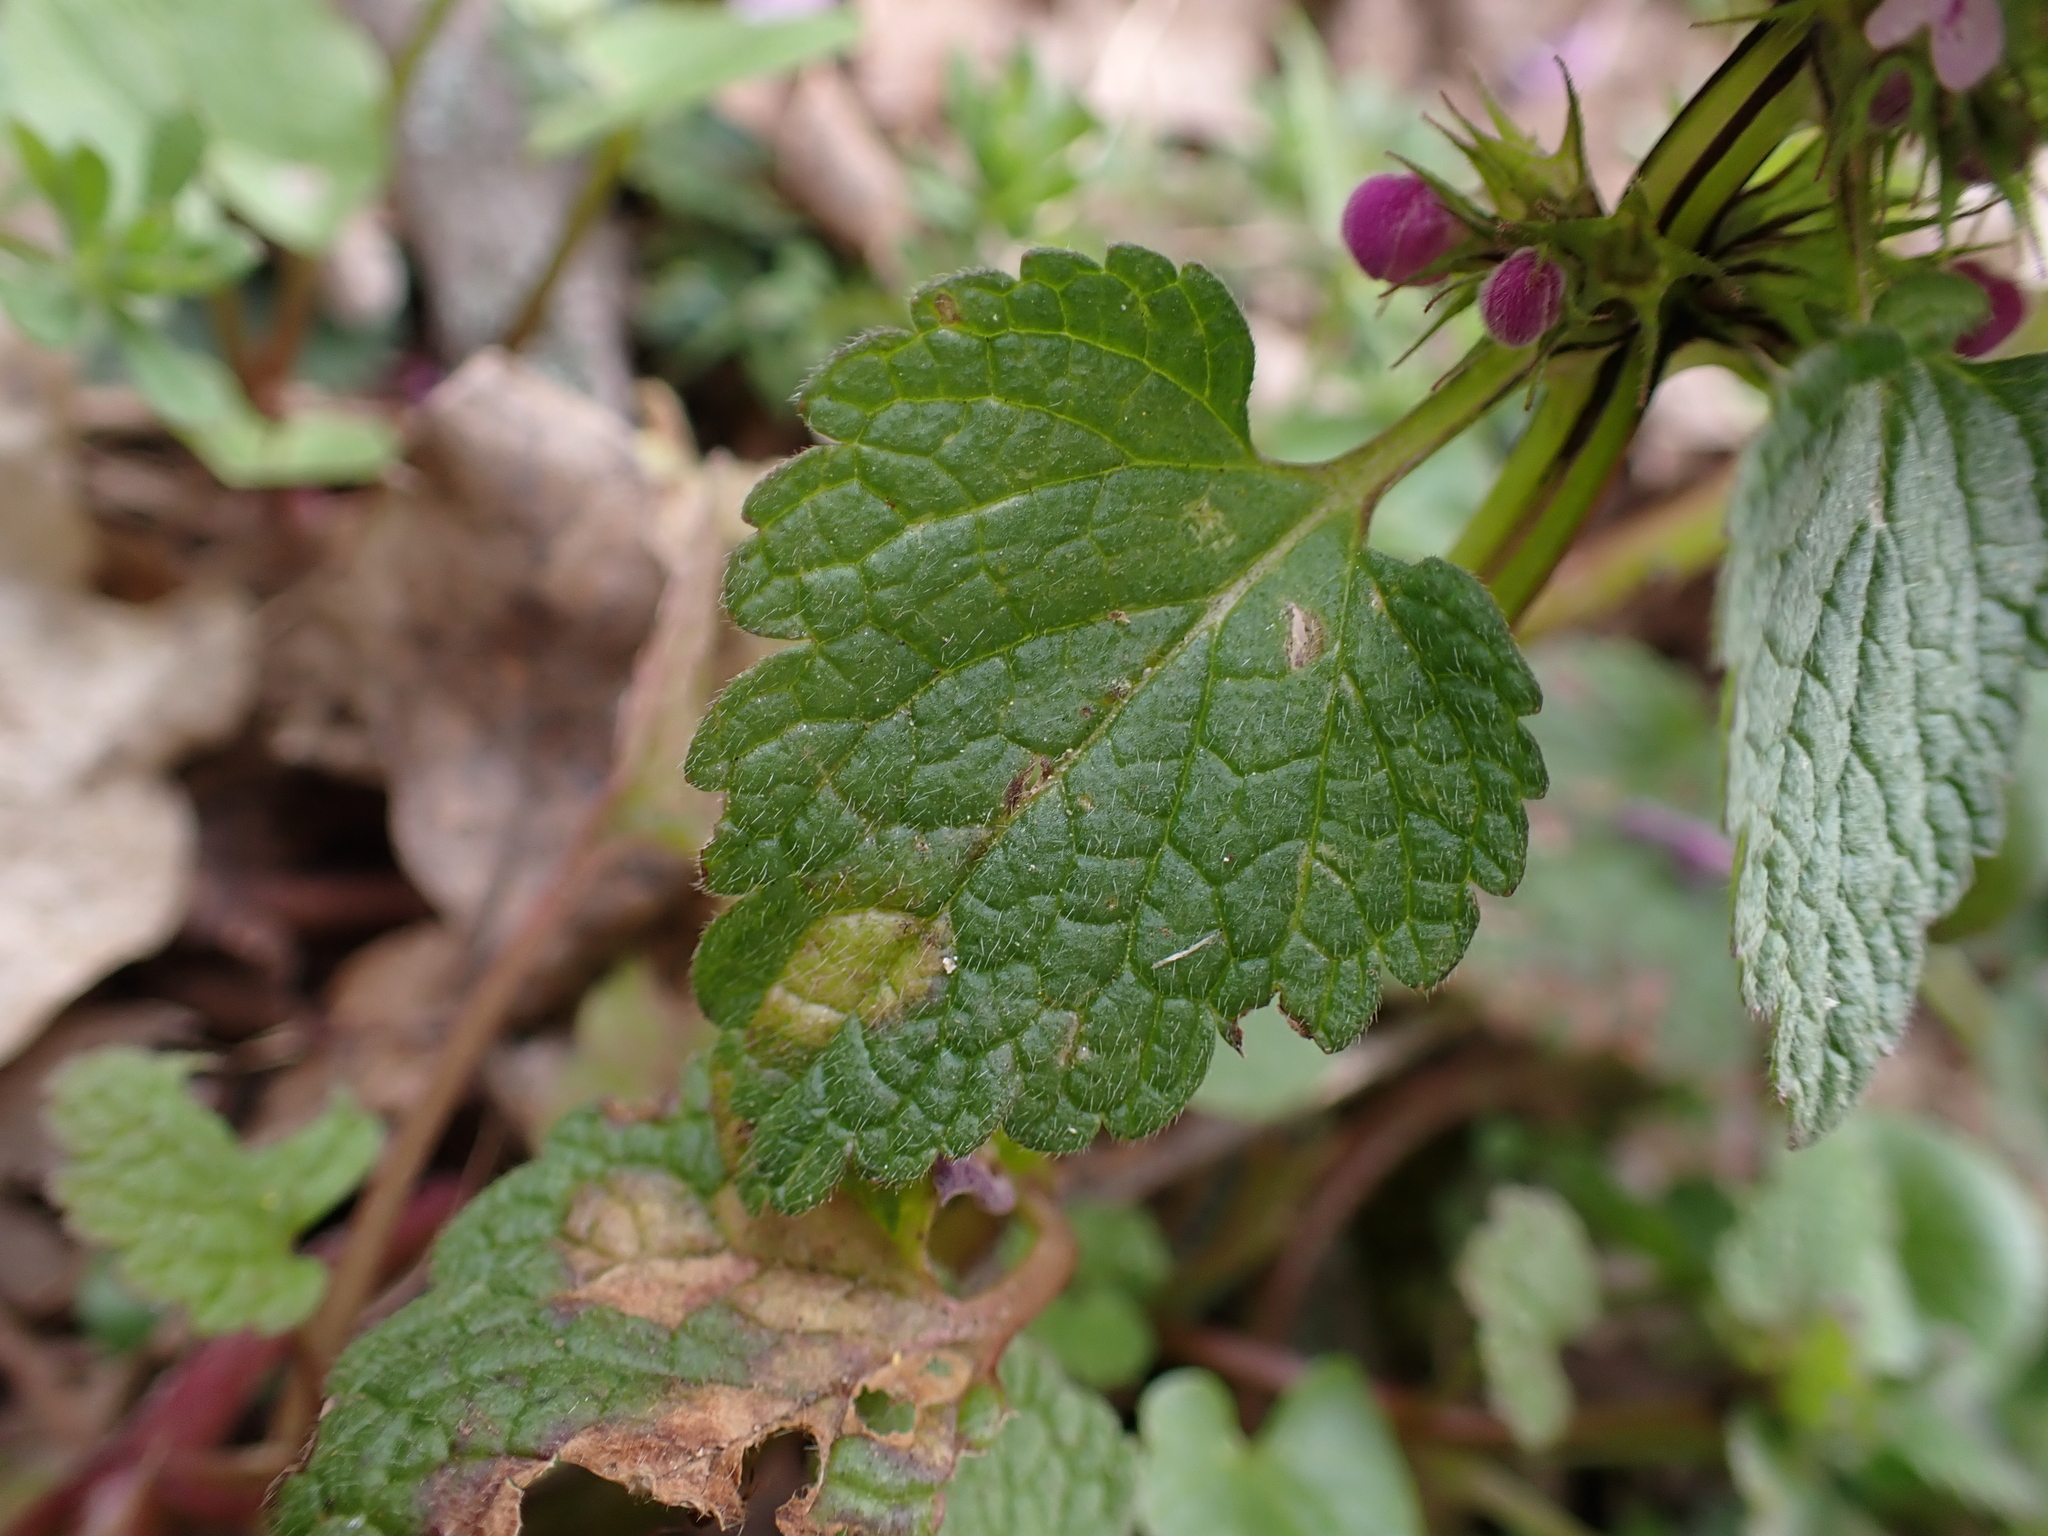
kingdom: Chromista
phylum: Oomycota
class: Peronosporea
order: Peronosporales
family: Peronosporaceae
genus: Peronospora
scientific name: Peronospora lamii
